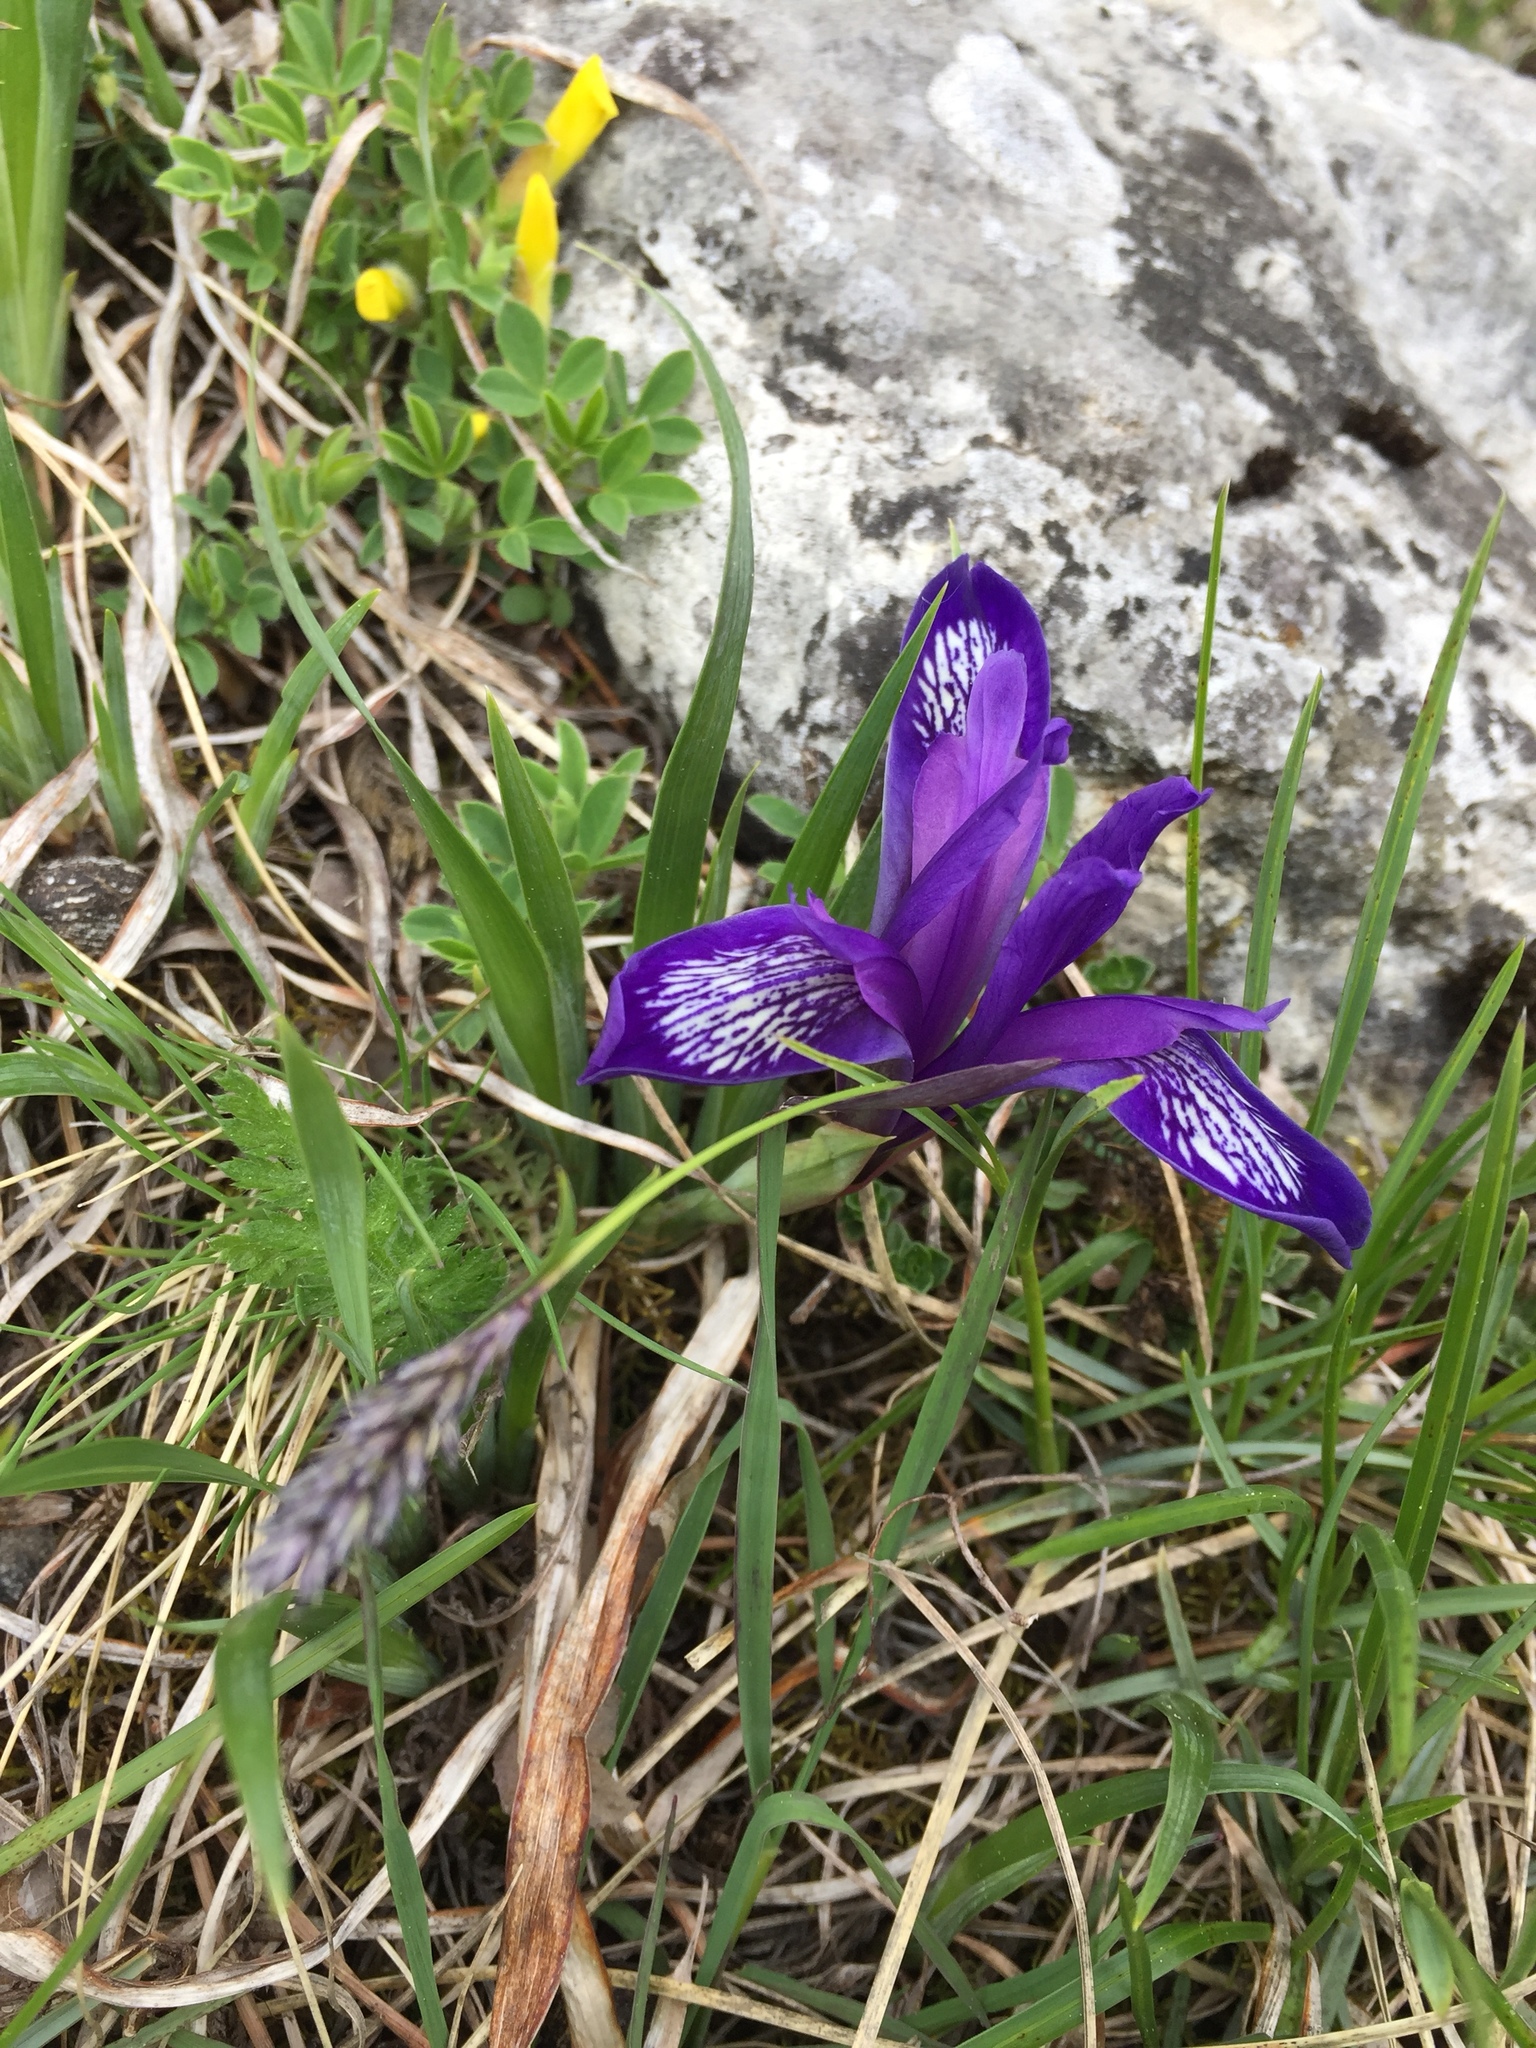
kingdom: Plantae
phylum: Tracheophyta
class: Liliopsida
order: Asparagales
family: Iridaceae
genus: Iris
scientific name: Iris ruthenica
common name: Purple-bract iris
